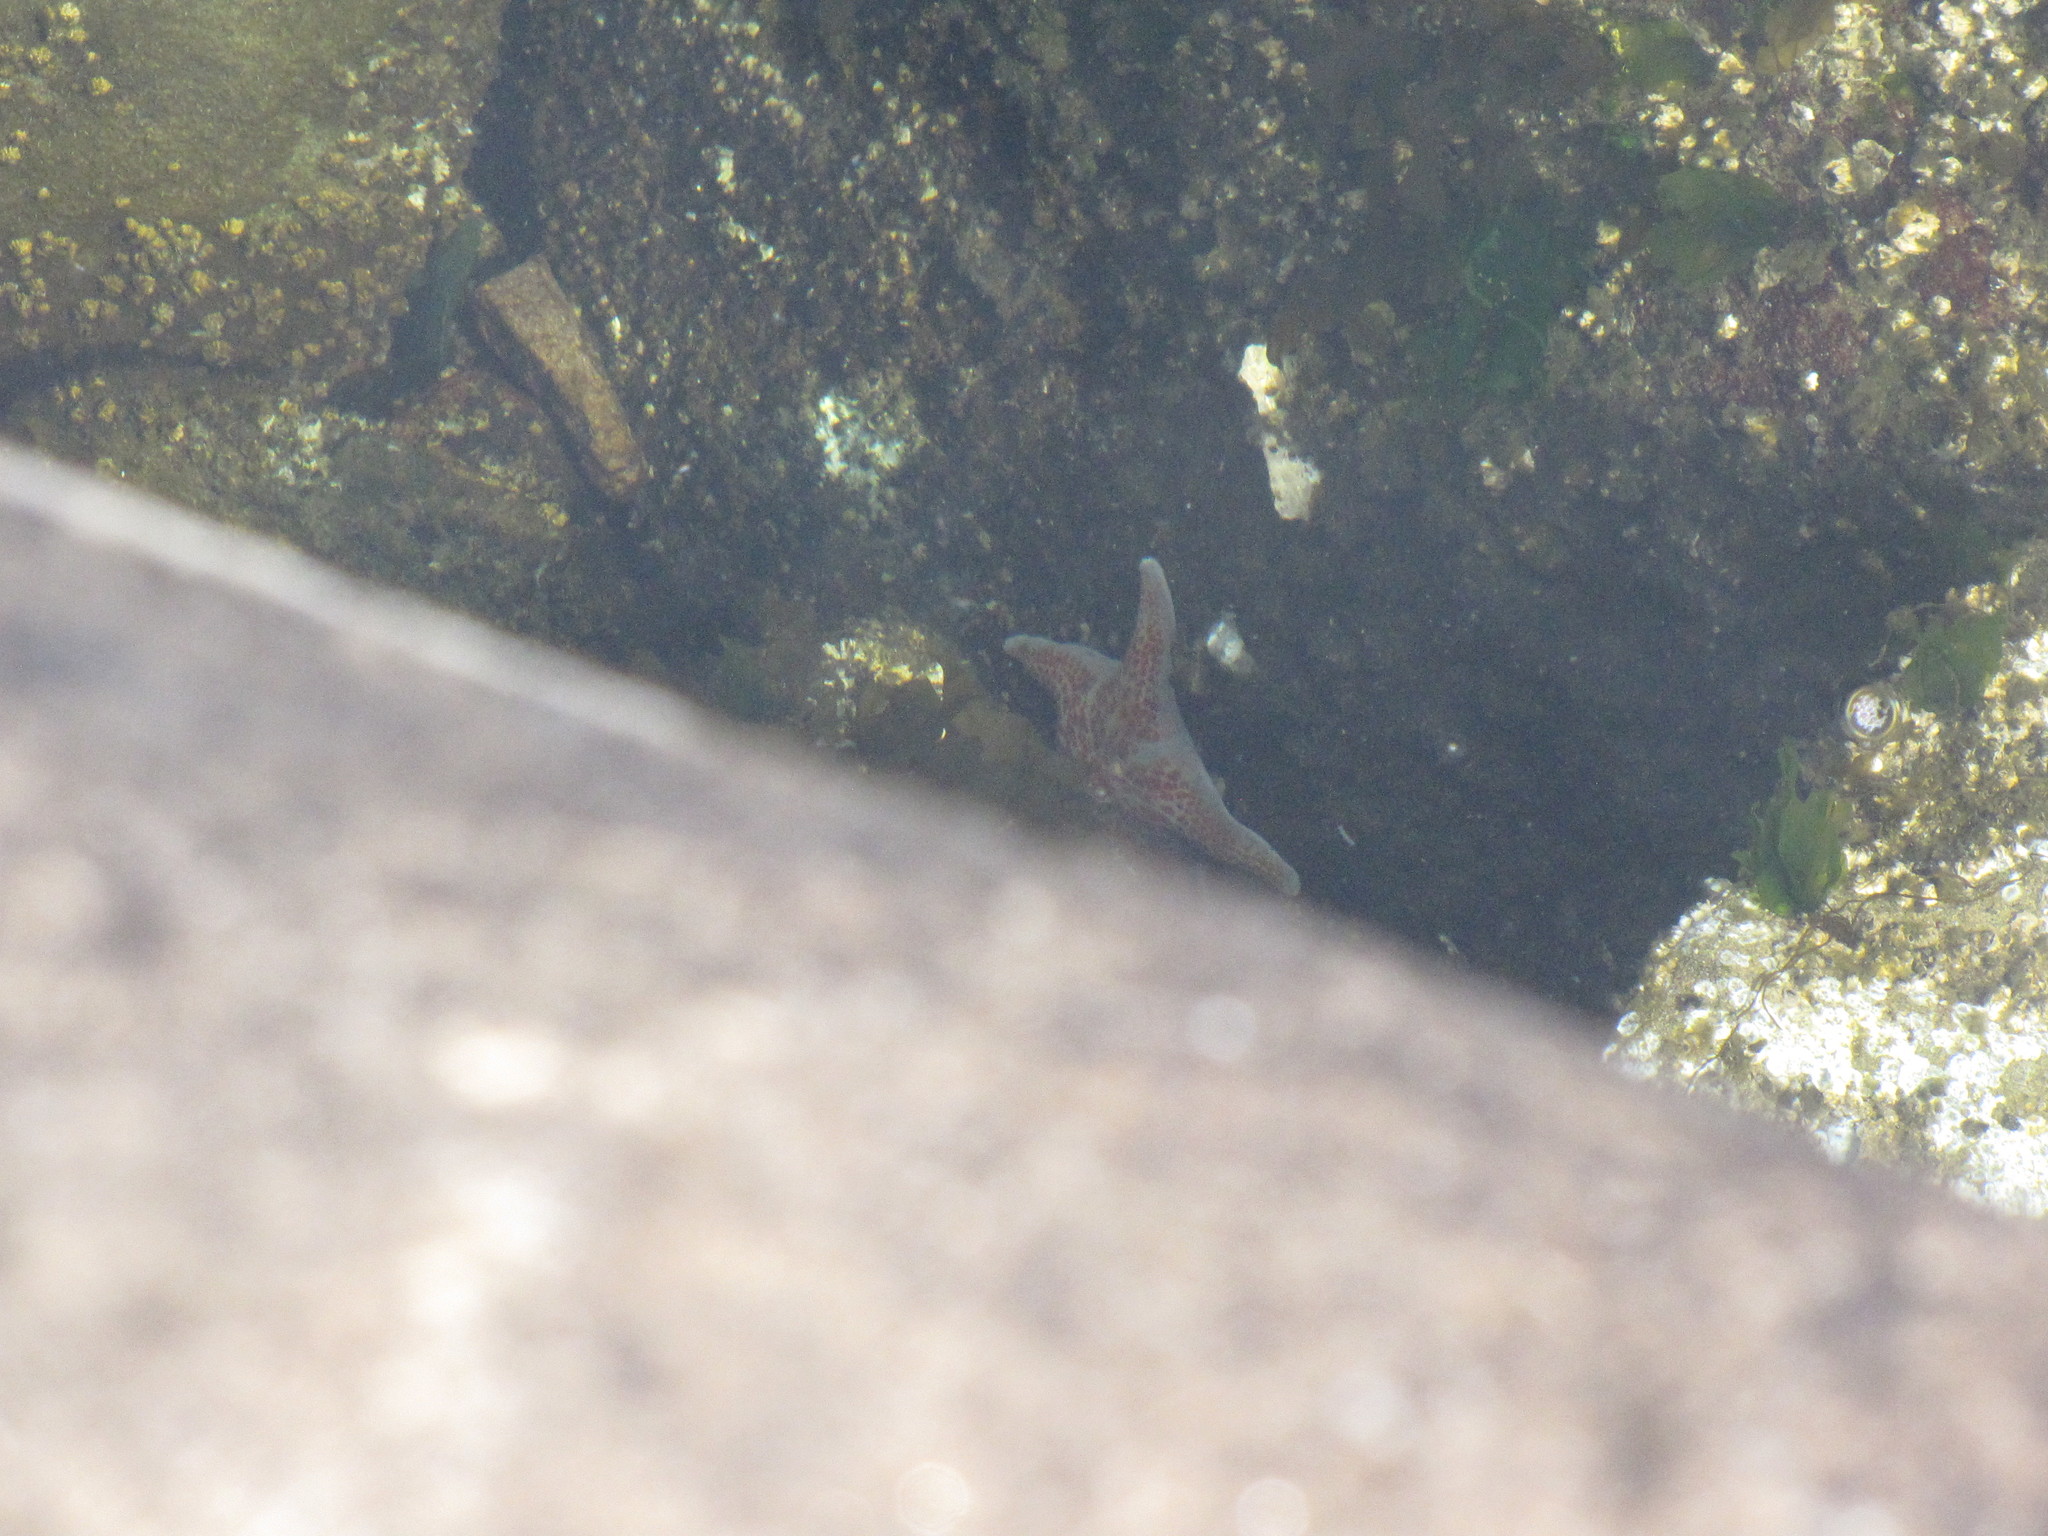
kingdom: Animalia
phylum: Echinodermata
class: Asteroidea
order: Valvatida
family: Asteropseidae
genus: Dermasterias
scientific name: Dermasterias imbricata
